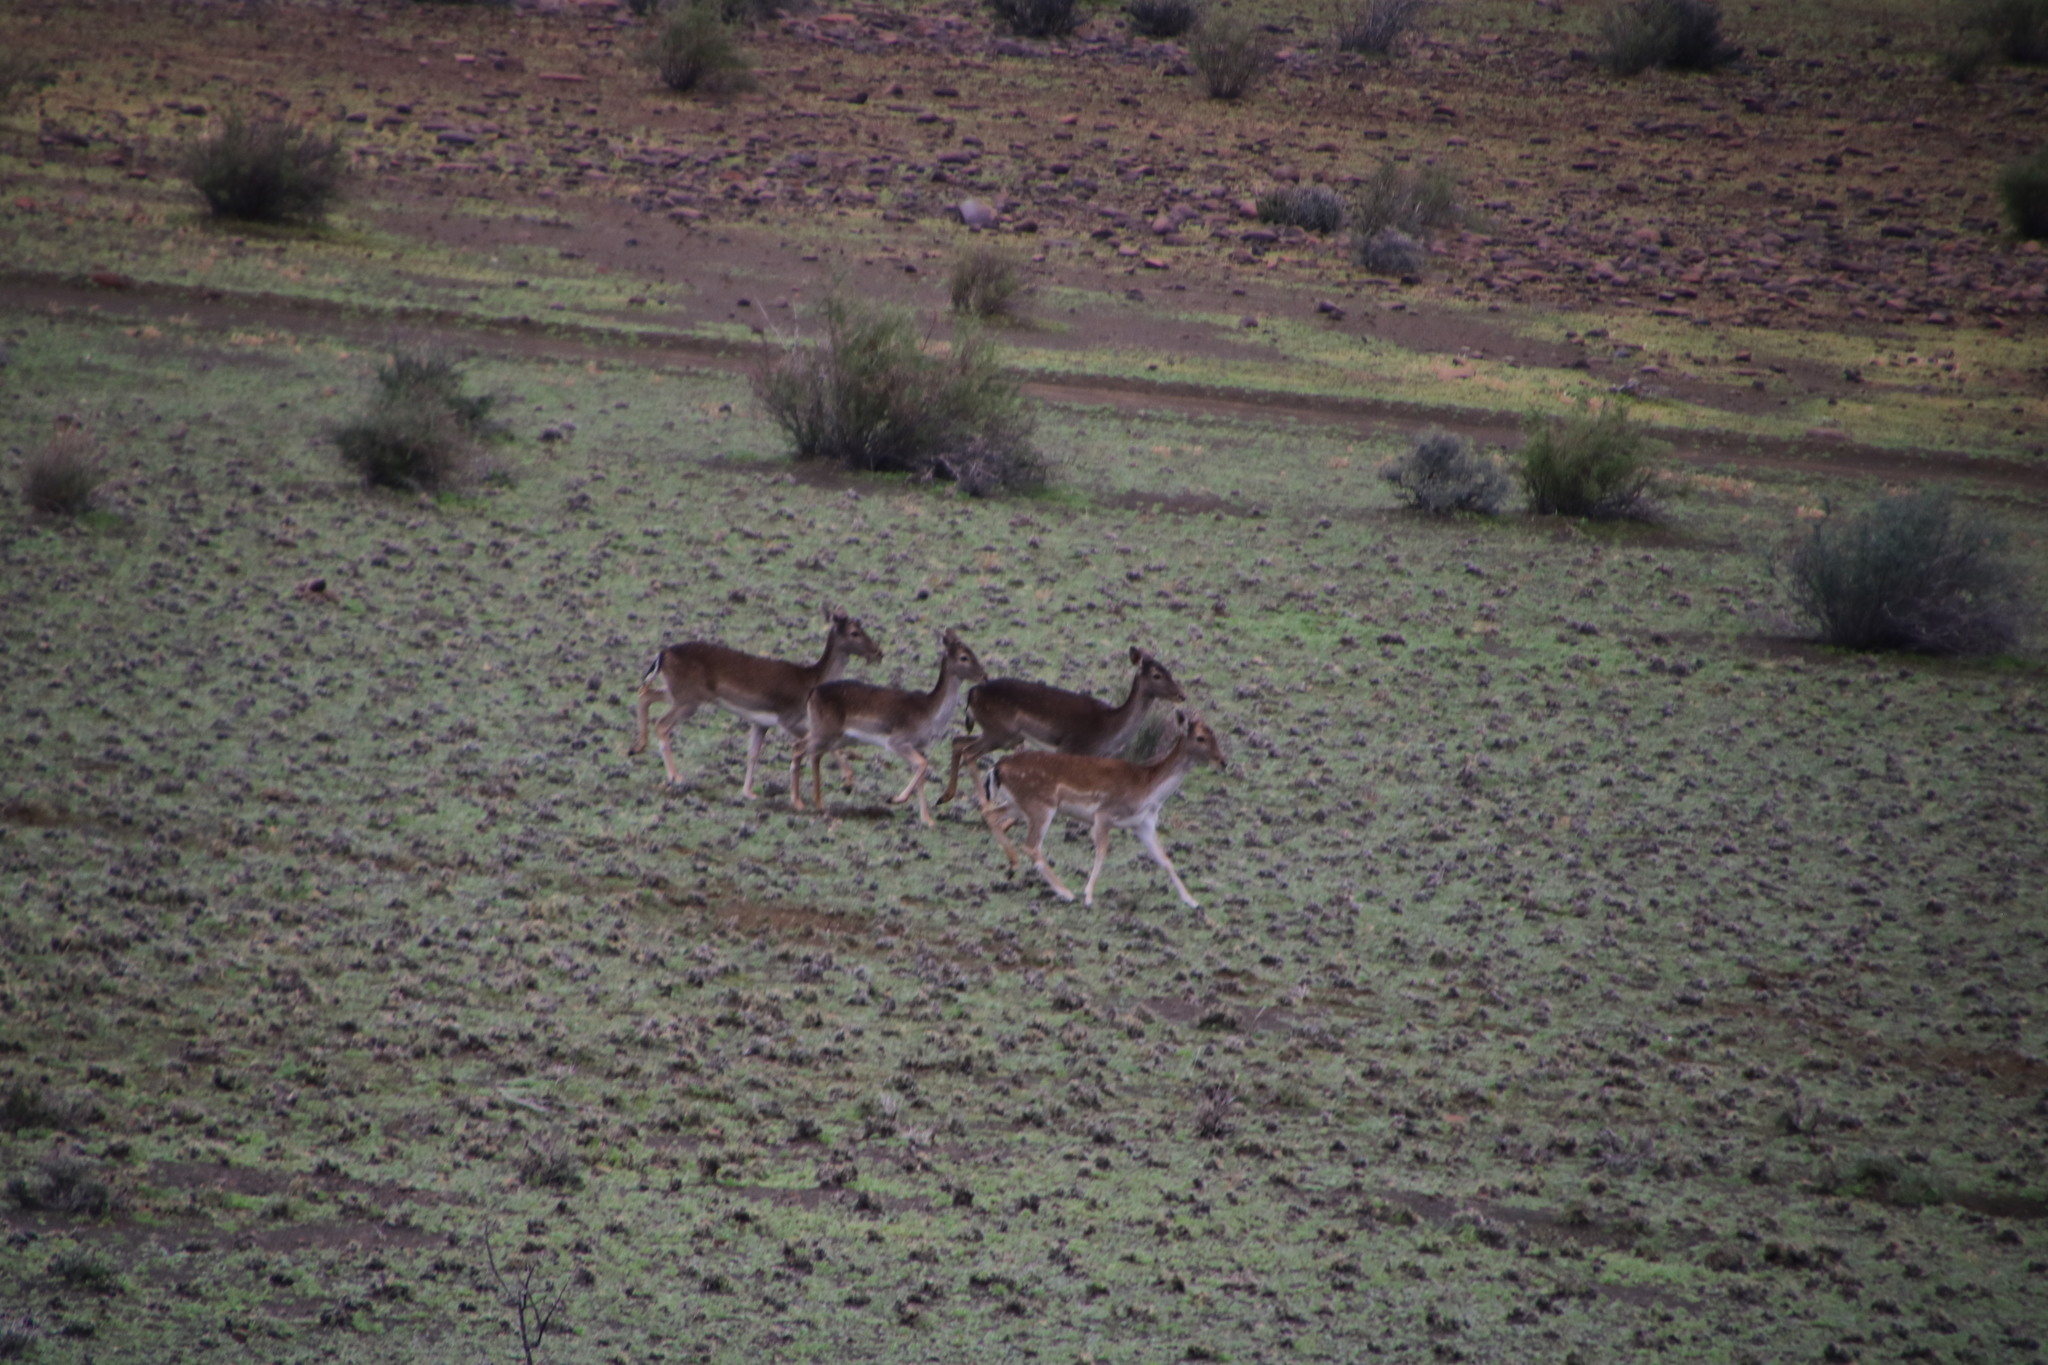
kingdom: Animalia
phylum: Chordata
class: Mammalia
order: Artiodactyla
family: Cervidae
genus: Dama
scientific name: Dama dama
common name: Fallow deer
